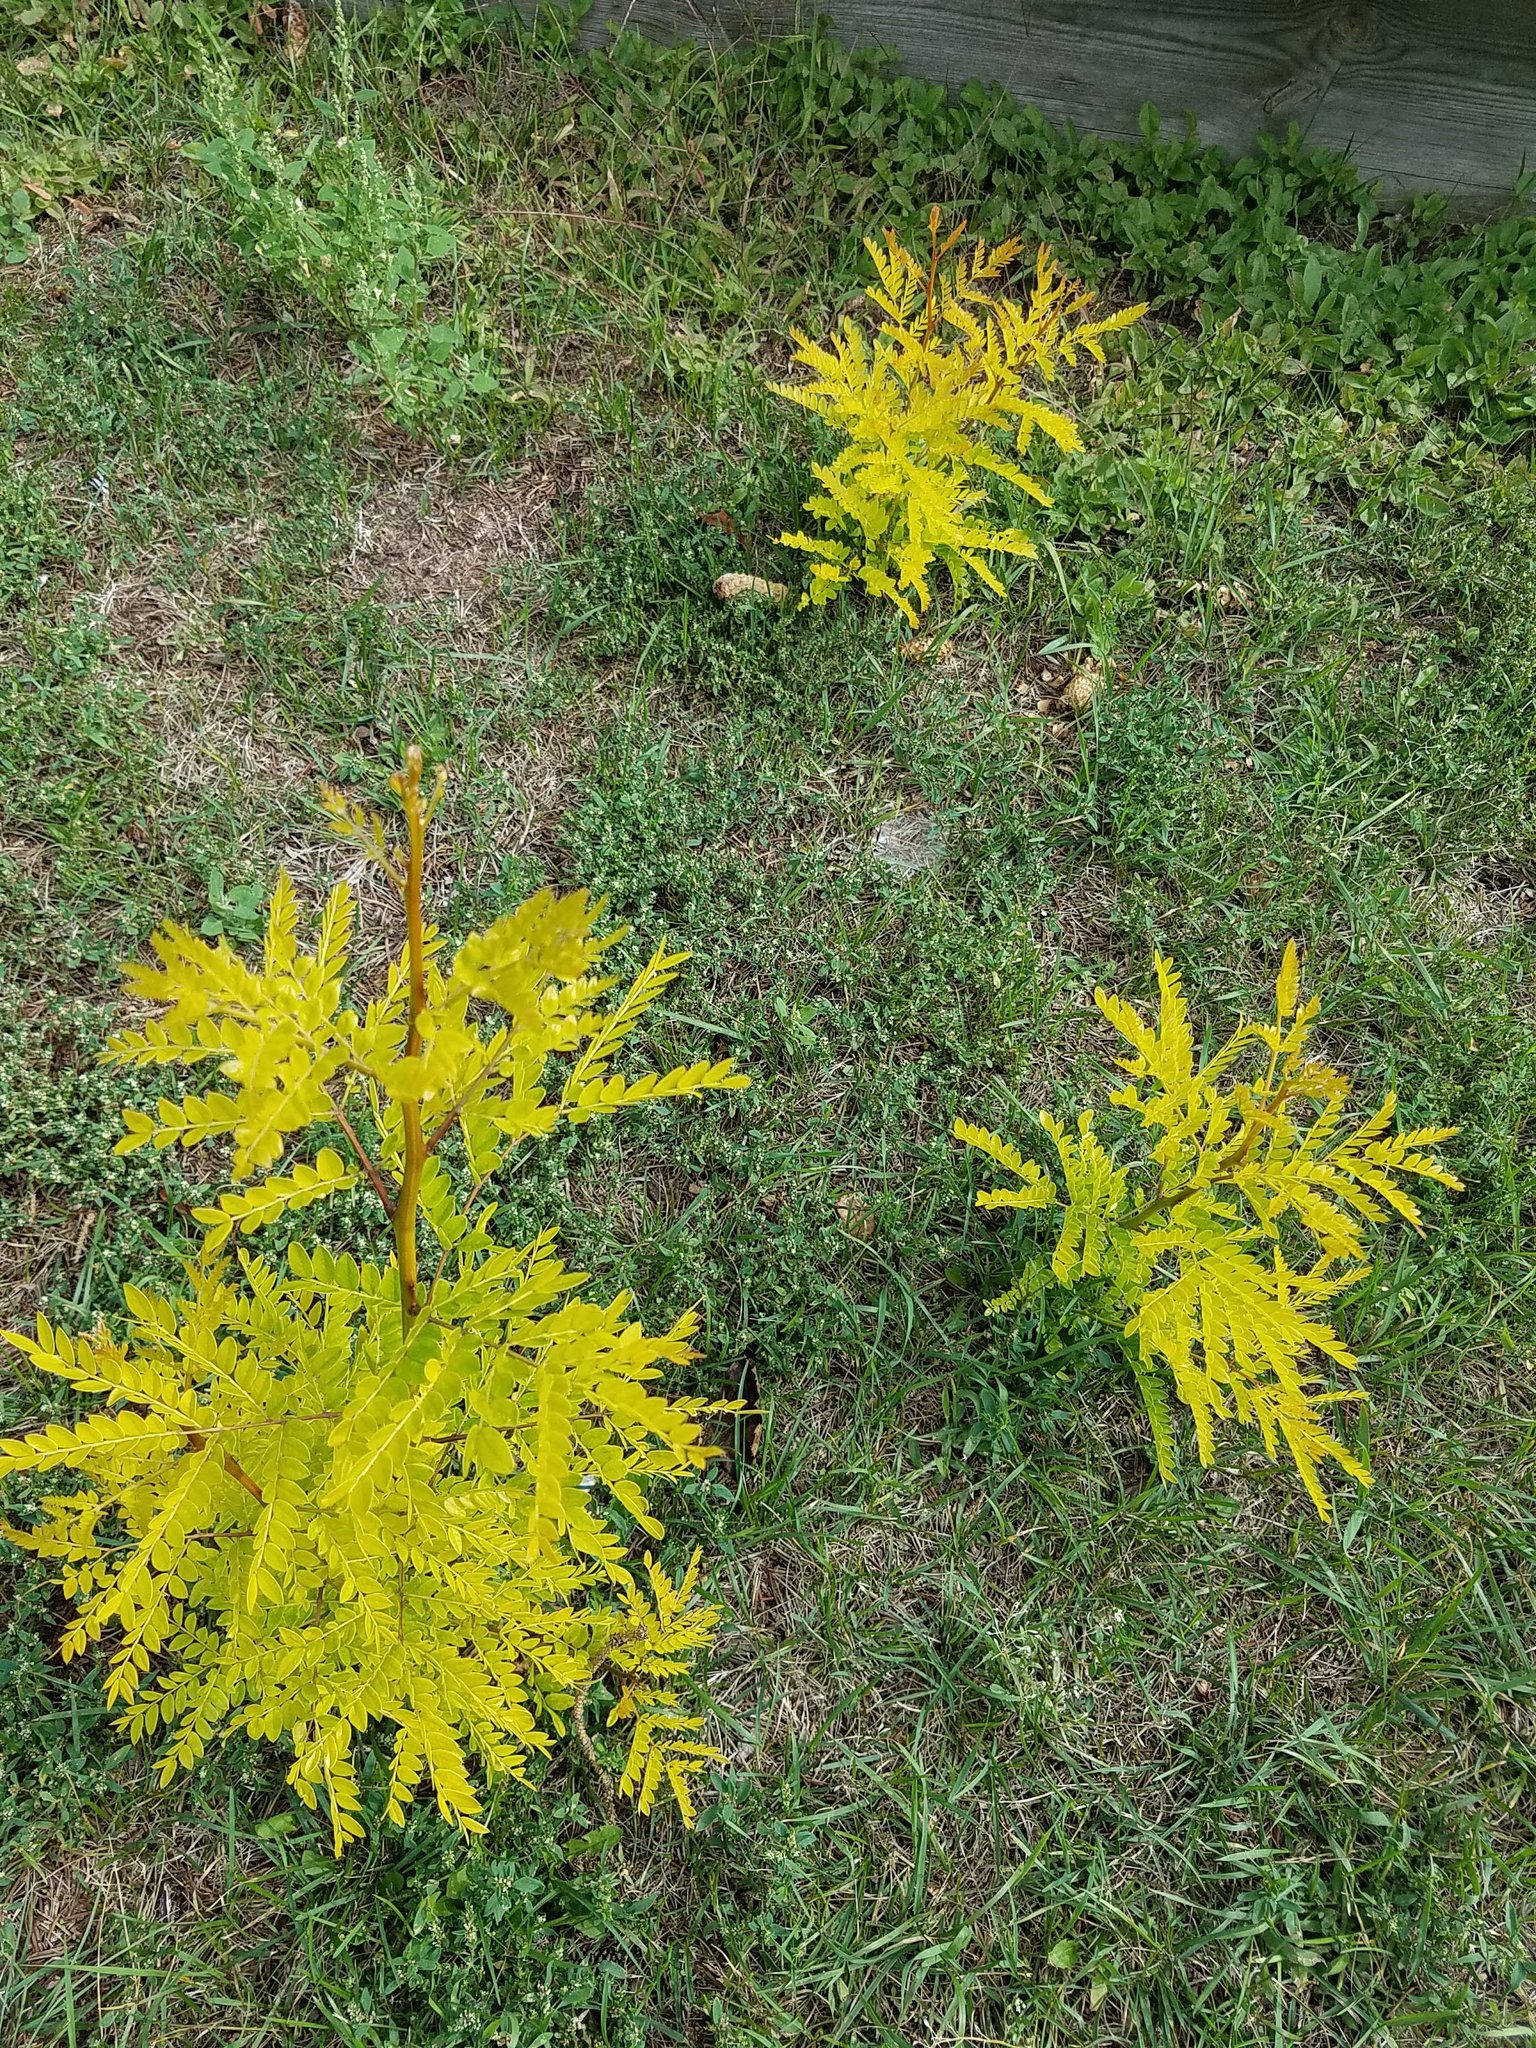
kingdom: Plantae
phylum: Tracheophyta
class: Magnoliopsida
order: Fabales
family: Fabaceae
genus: Gleditsia
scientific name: Gleditsia triacanthos
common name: Common honeylocust
